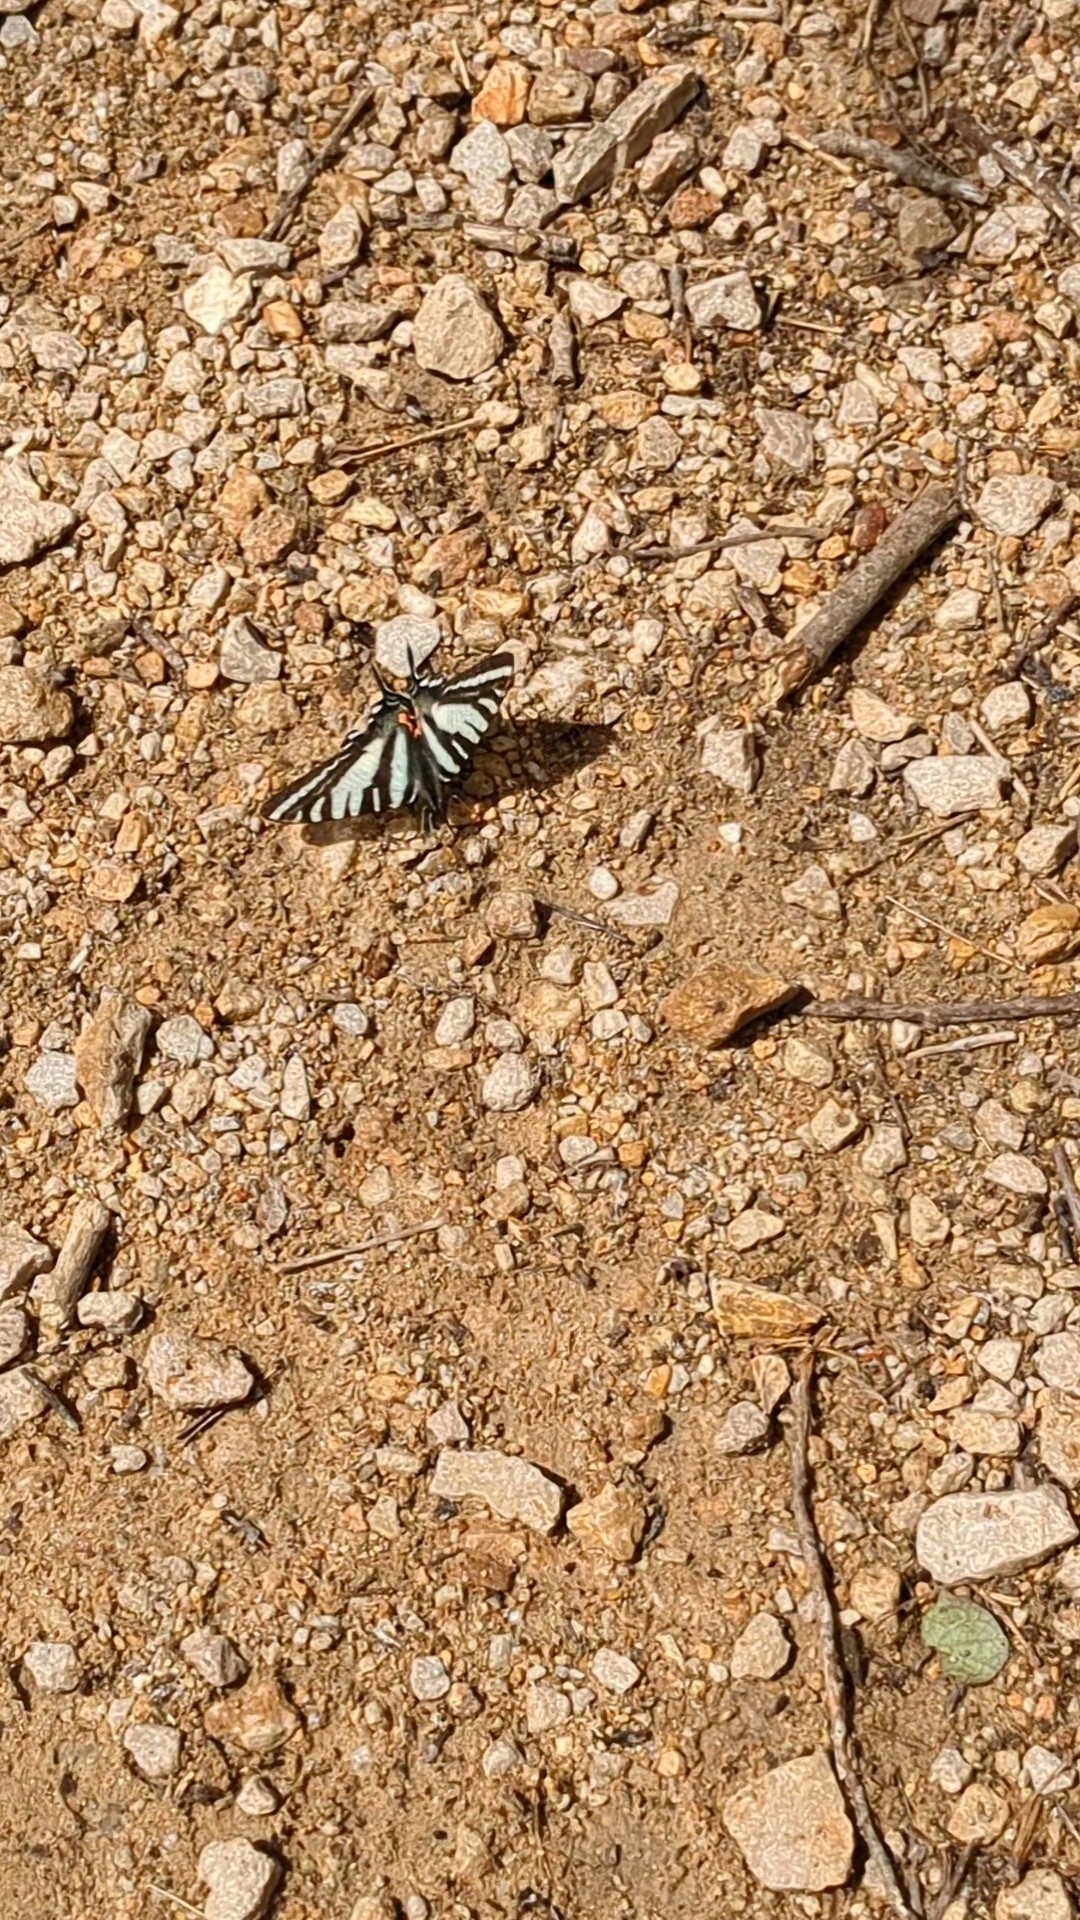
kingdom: Animalia
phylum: Arthropoda
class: Insecta
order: Lepidoptera
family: Papilionidae
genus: Protographium
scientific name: Protographium marcellus
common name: Zebra swallowtail
